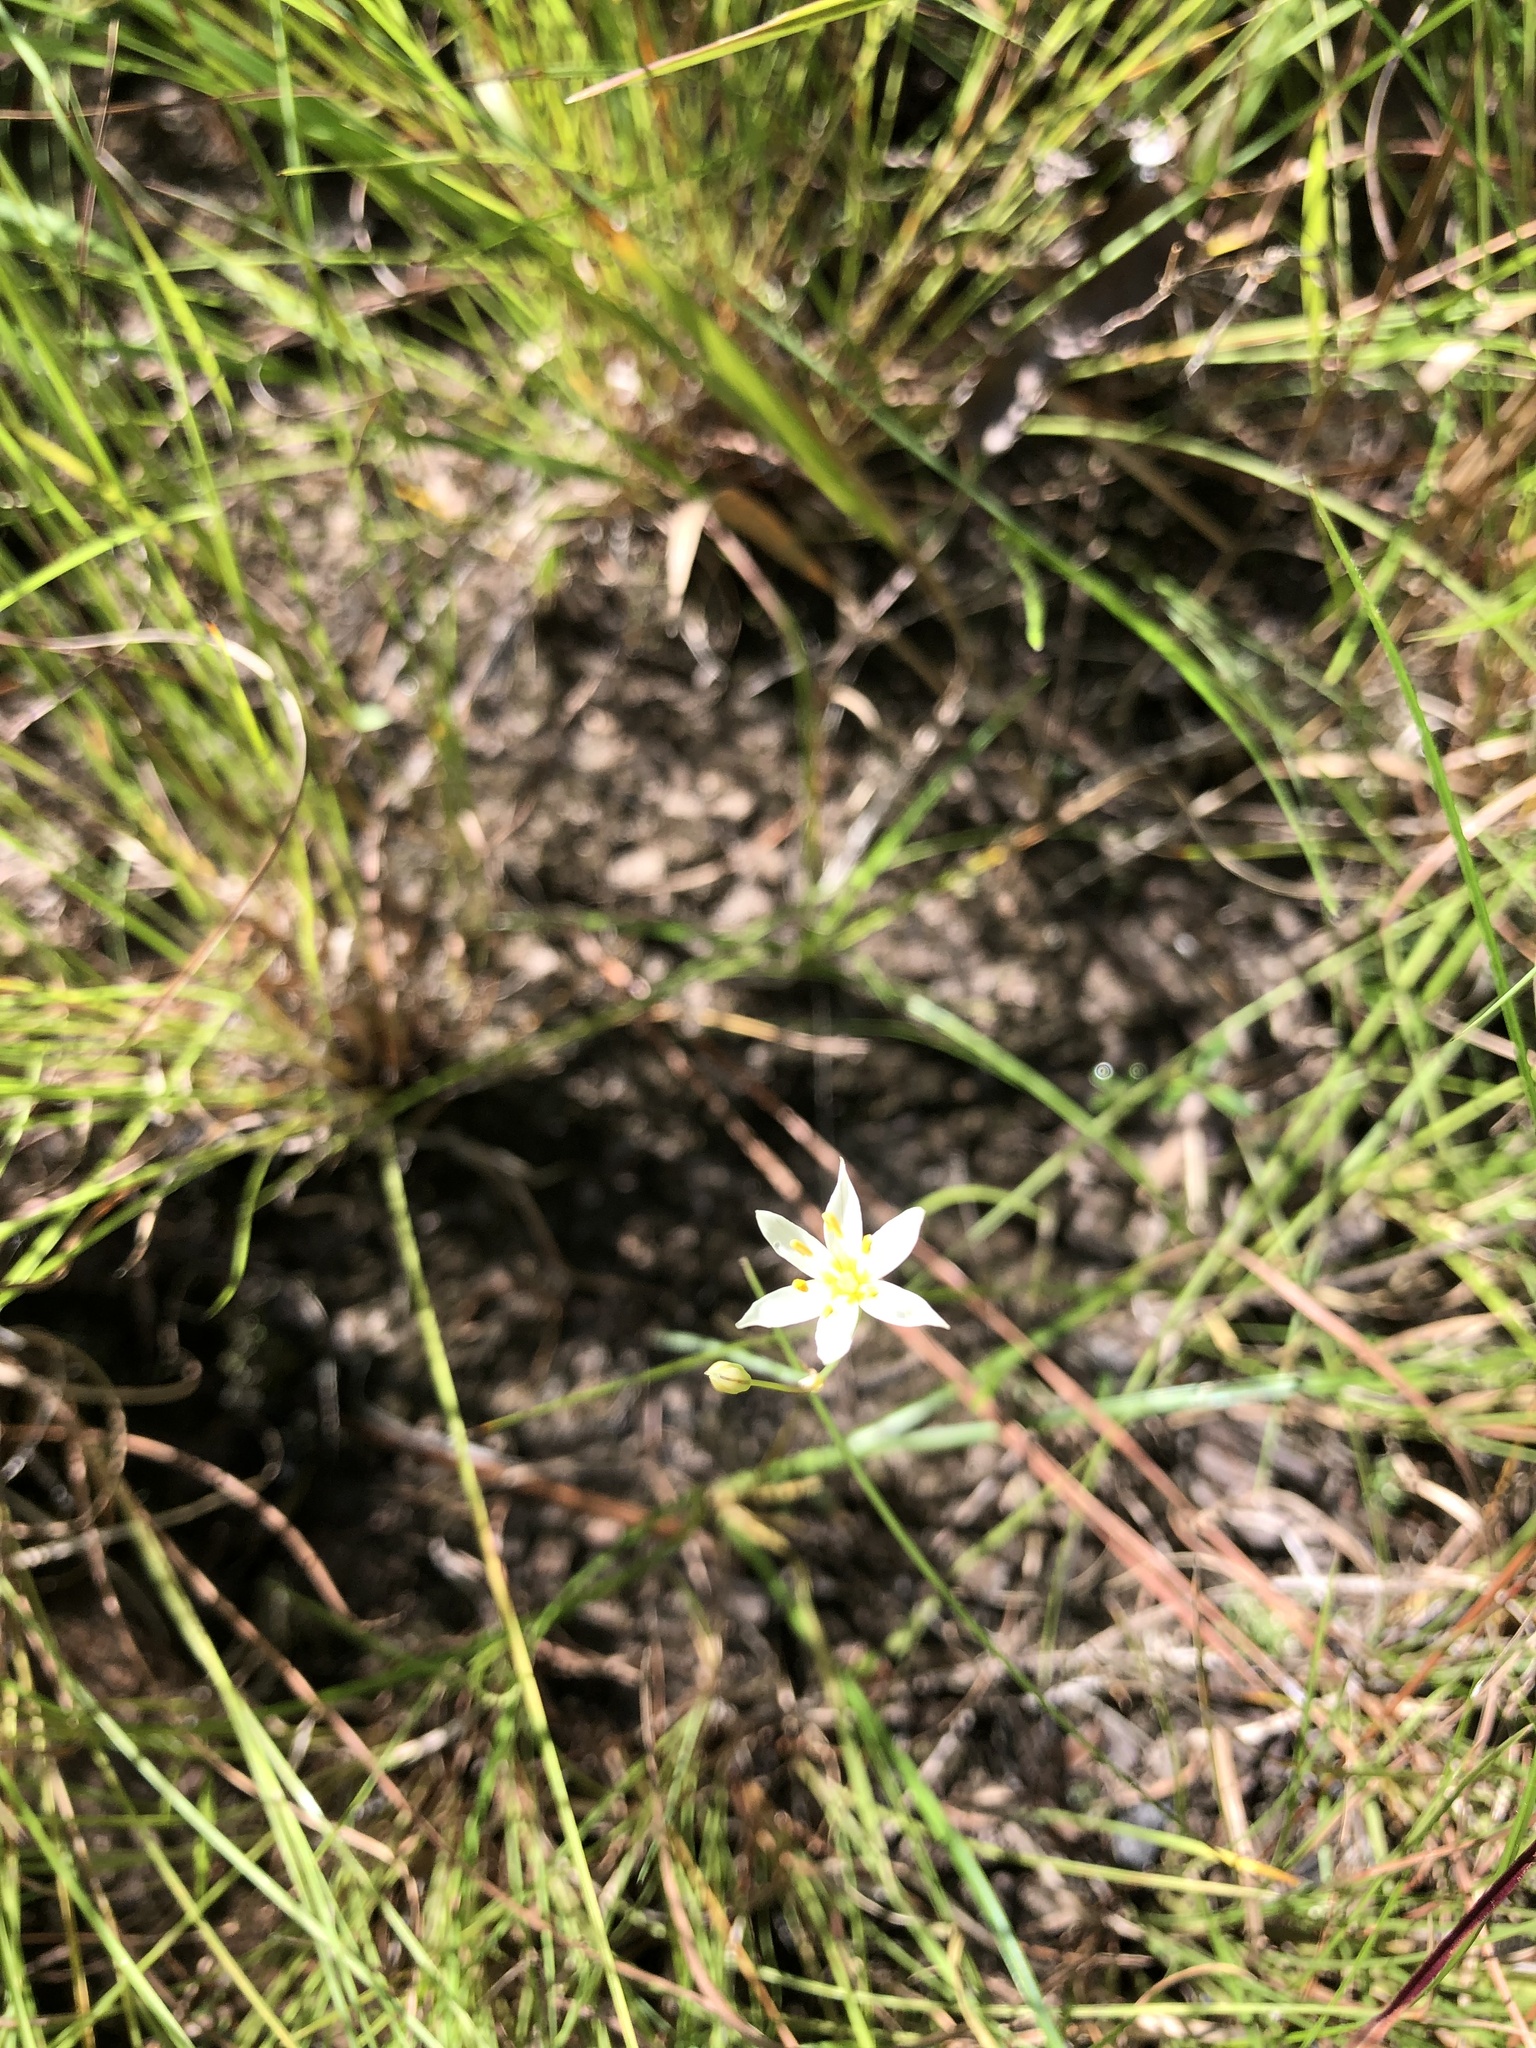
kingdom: Plantae
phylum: Tracheophyta
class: Liliopsida
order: Asparagales
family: Amaryllidaceae
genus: Nothoscordum
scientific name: Nothoscordum bivalve
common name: Crow-poison
